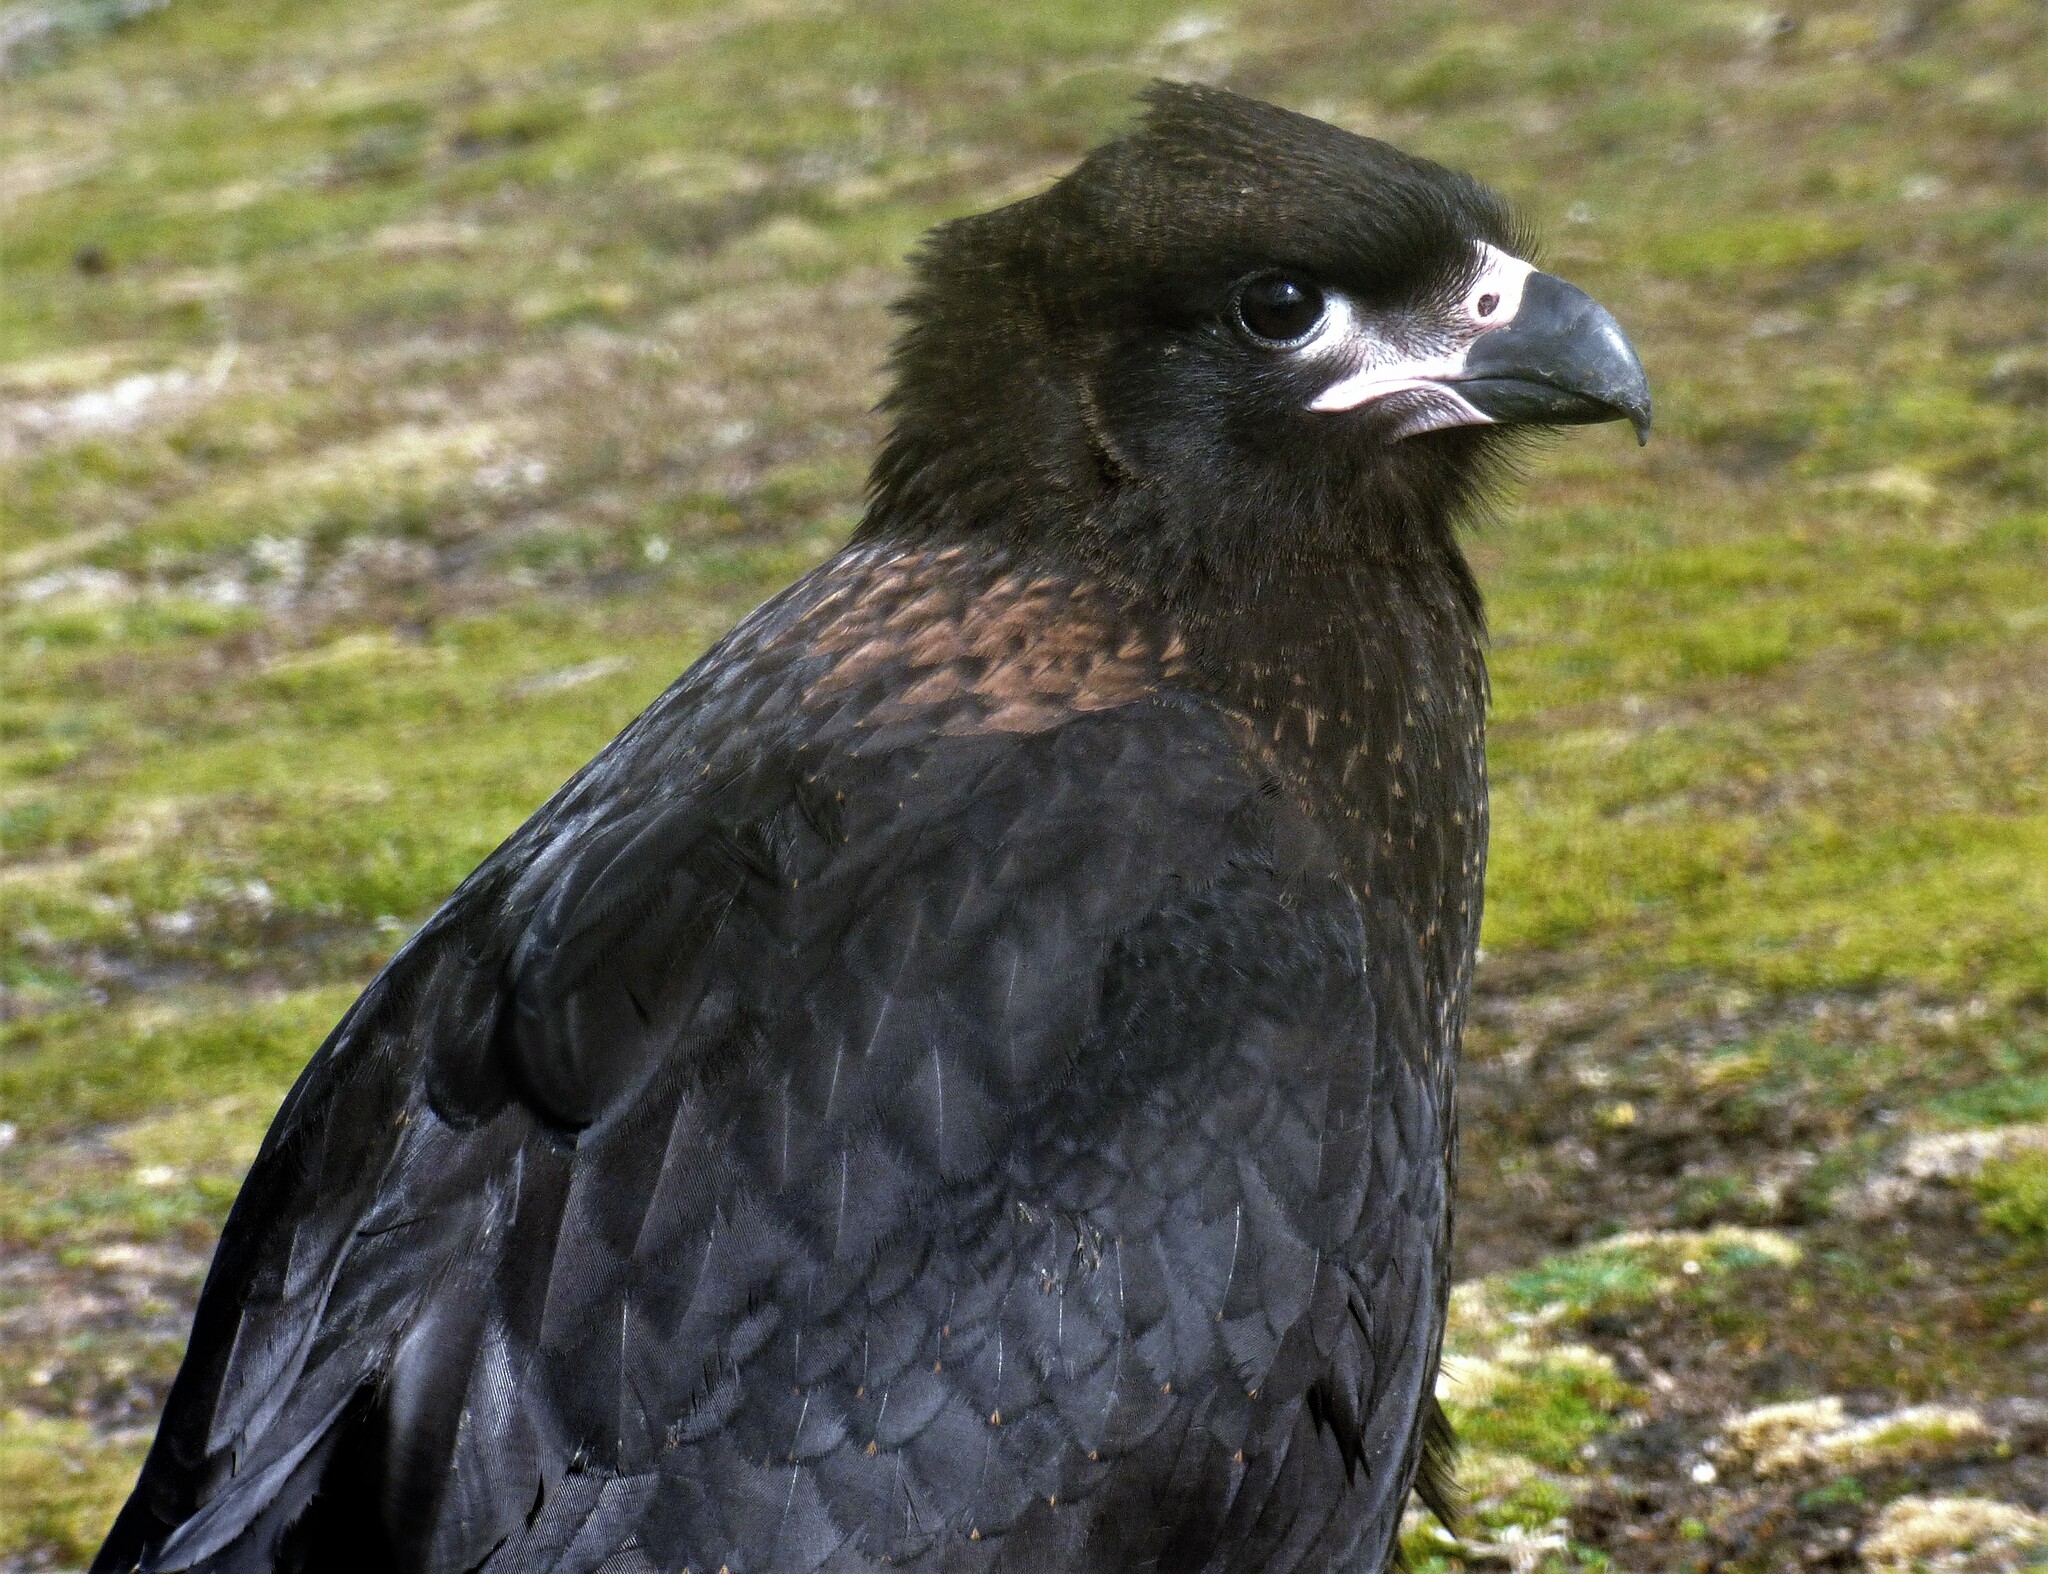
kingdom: Animalia
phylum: Chordata
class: Aves
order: Falconiformes
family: Falconidae
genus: Daptrius
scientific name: Daptrius
